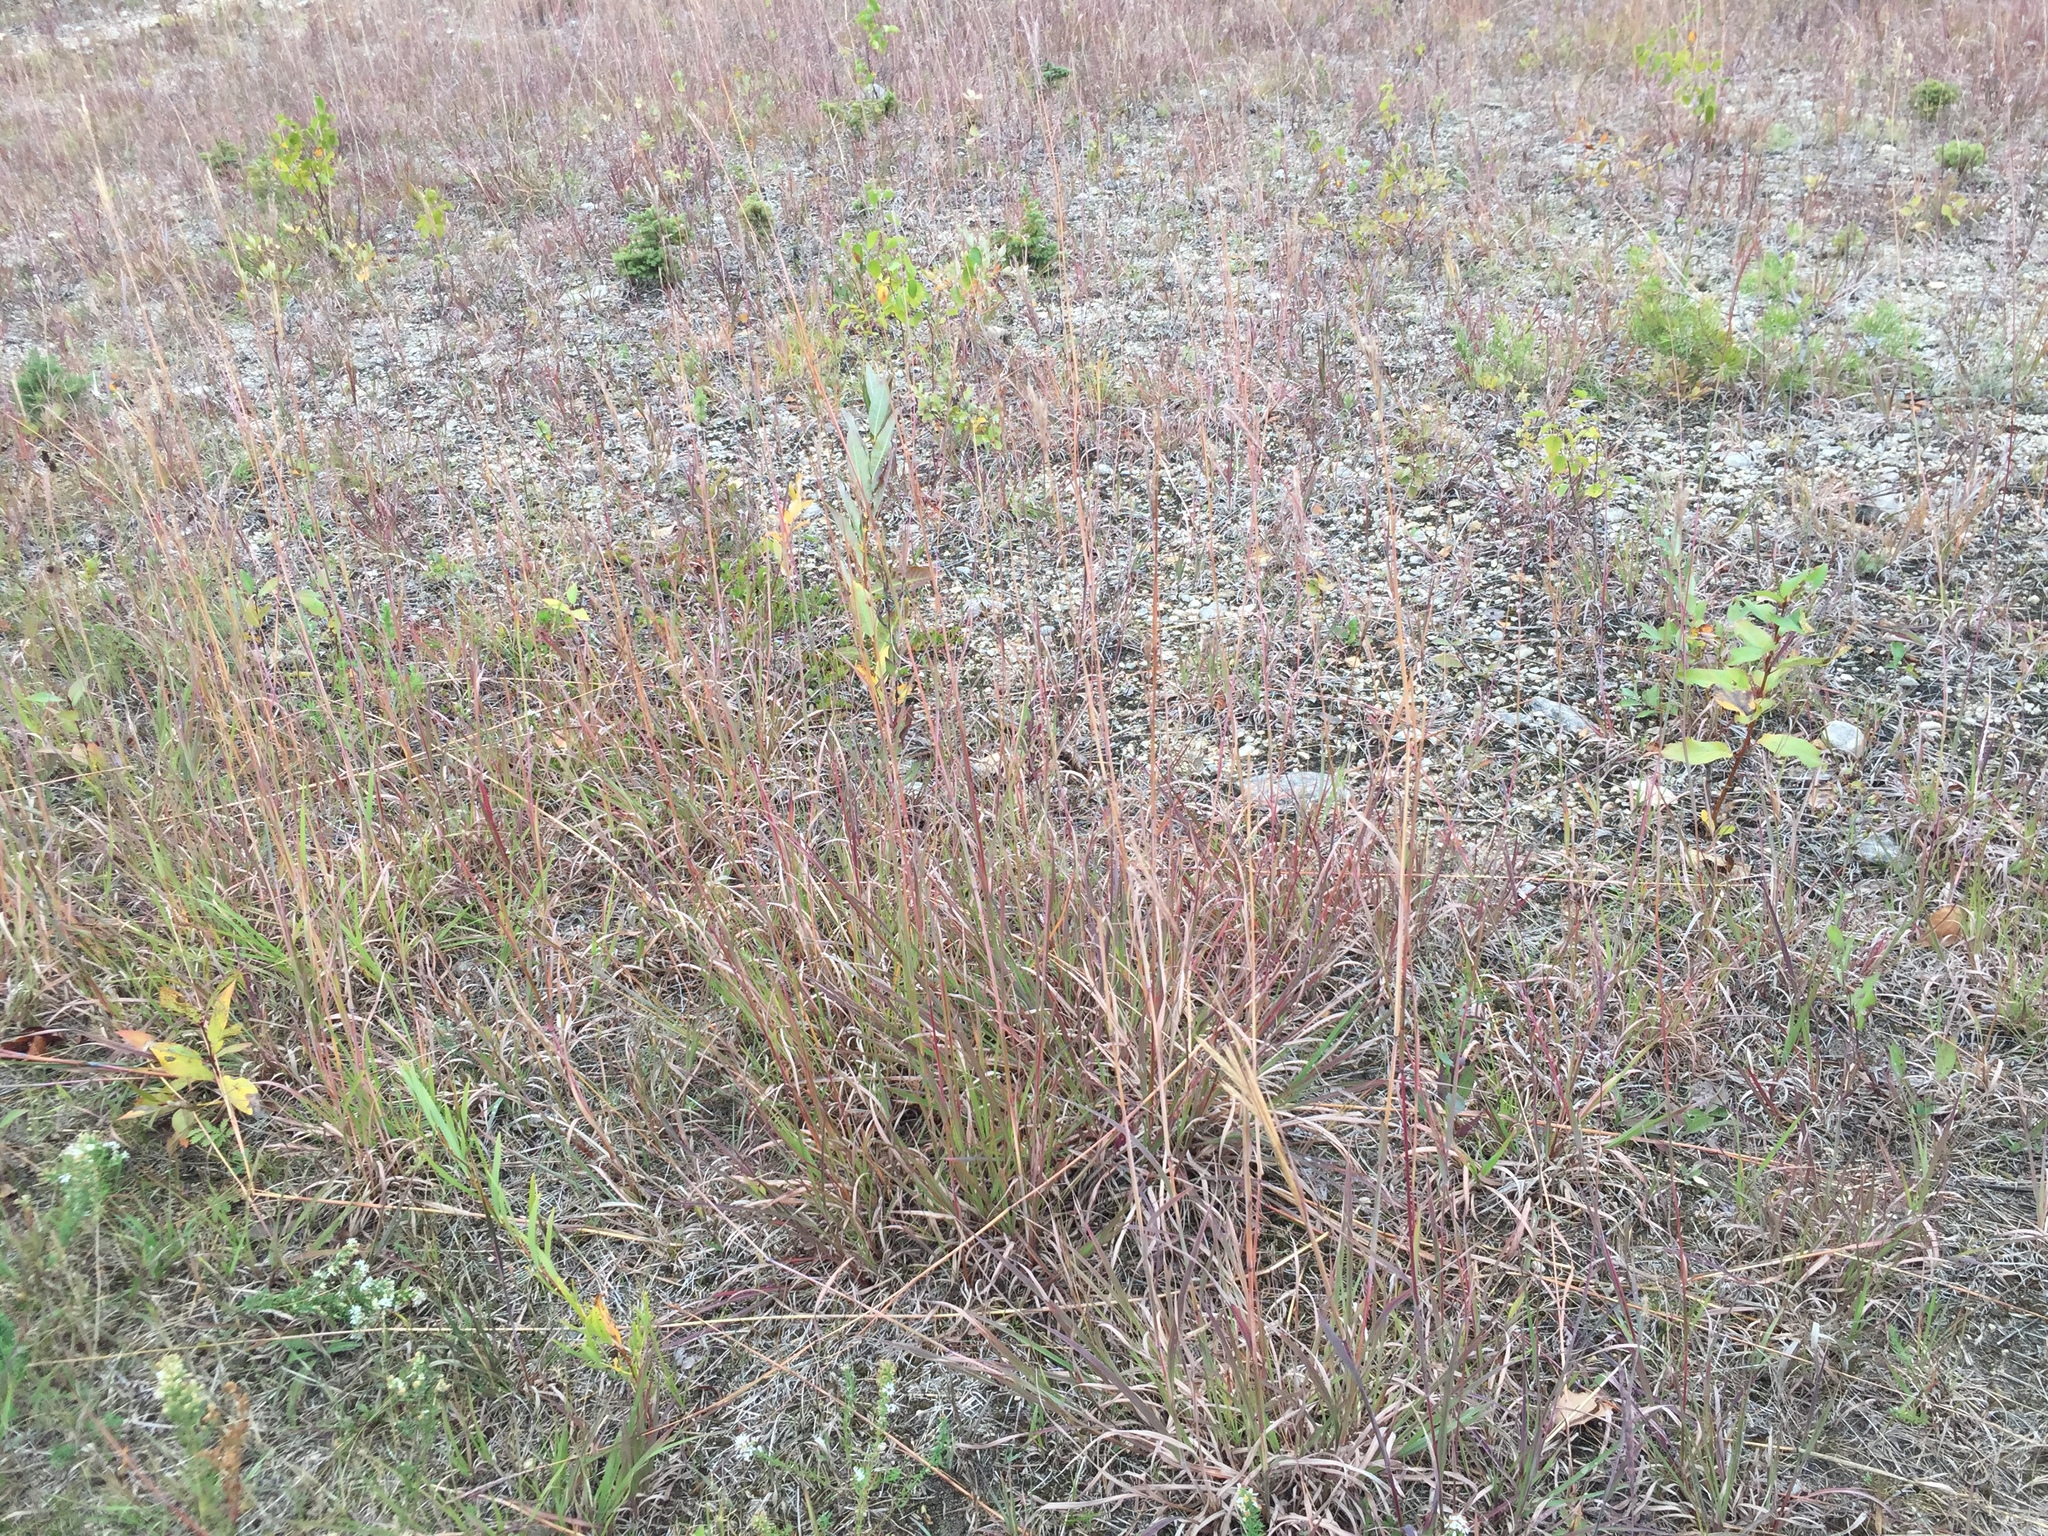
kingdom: Plantae
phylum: Tracheophyta
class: Liliopsida
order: Poales
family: Poaceae
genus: Andropogon
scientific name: Andropogon gerardi
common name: Big bluestem
